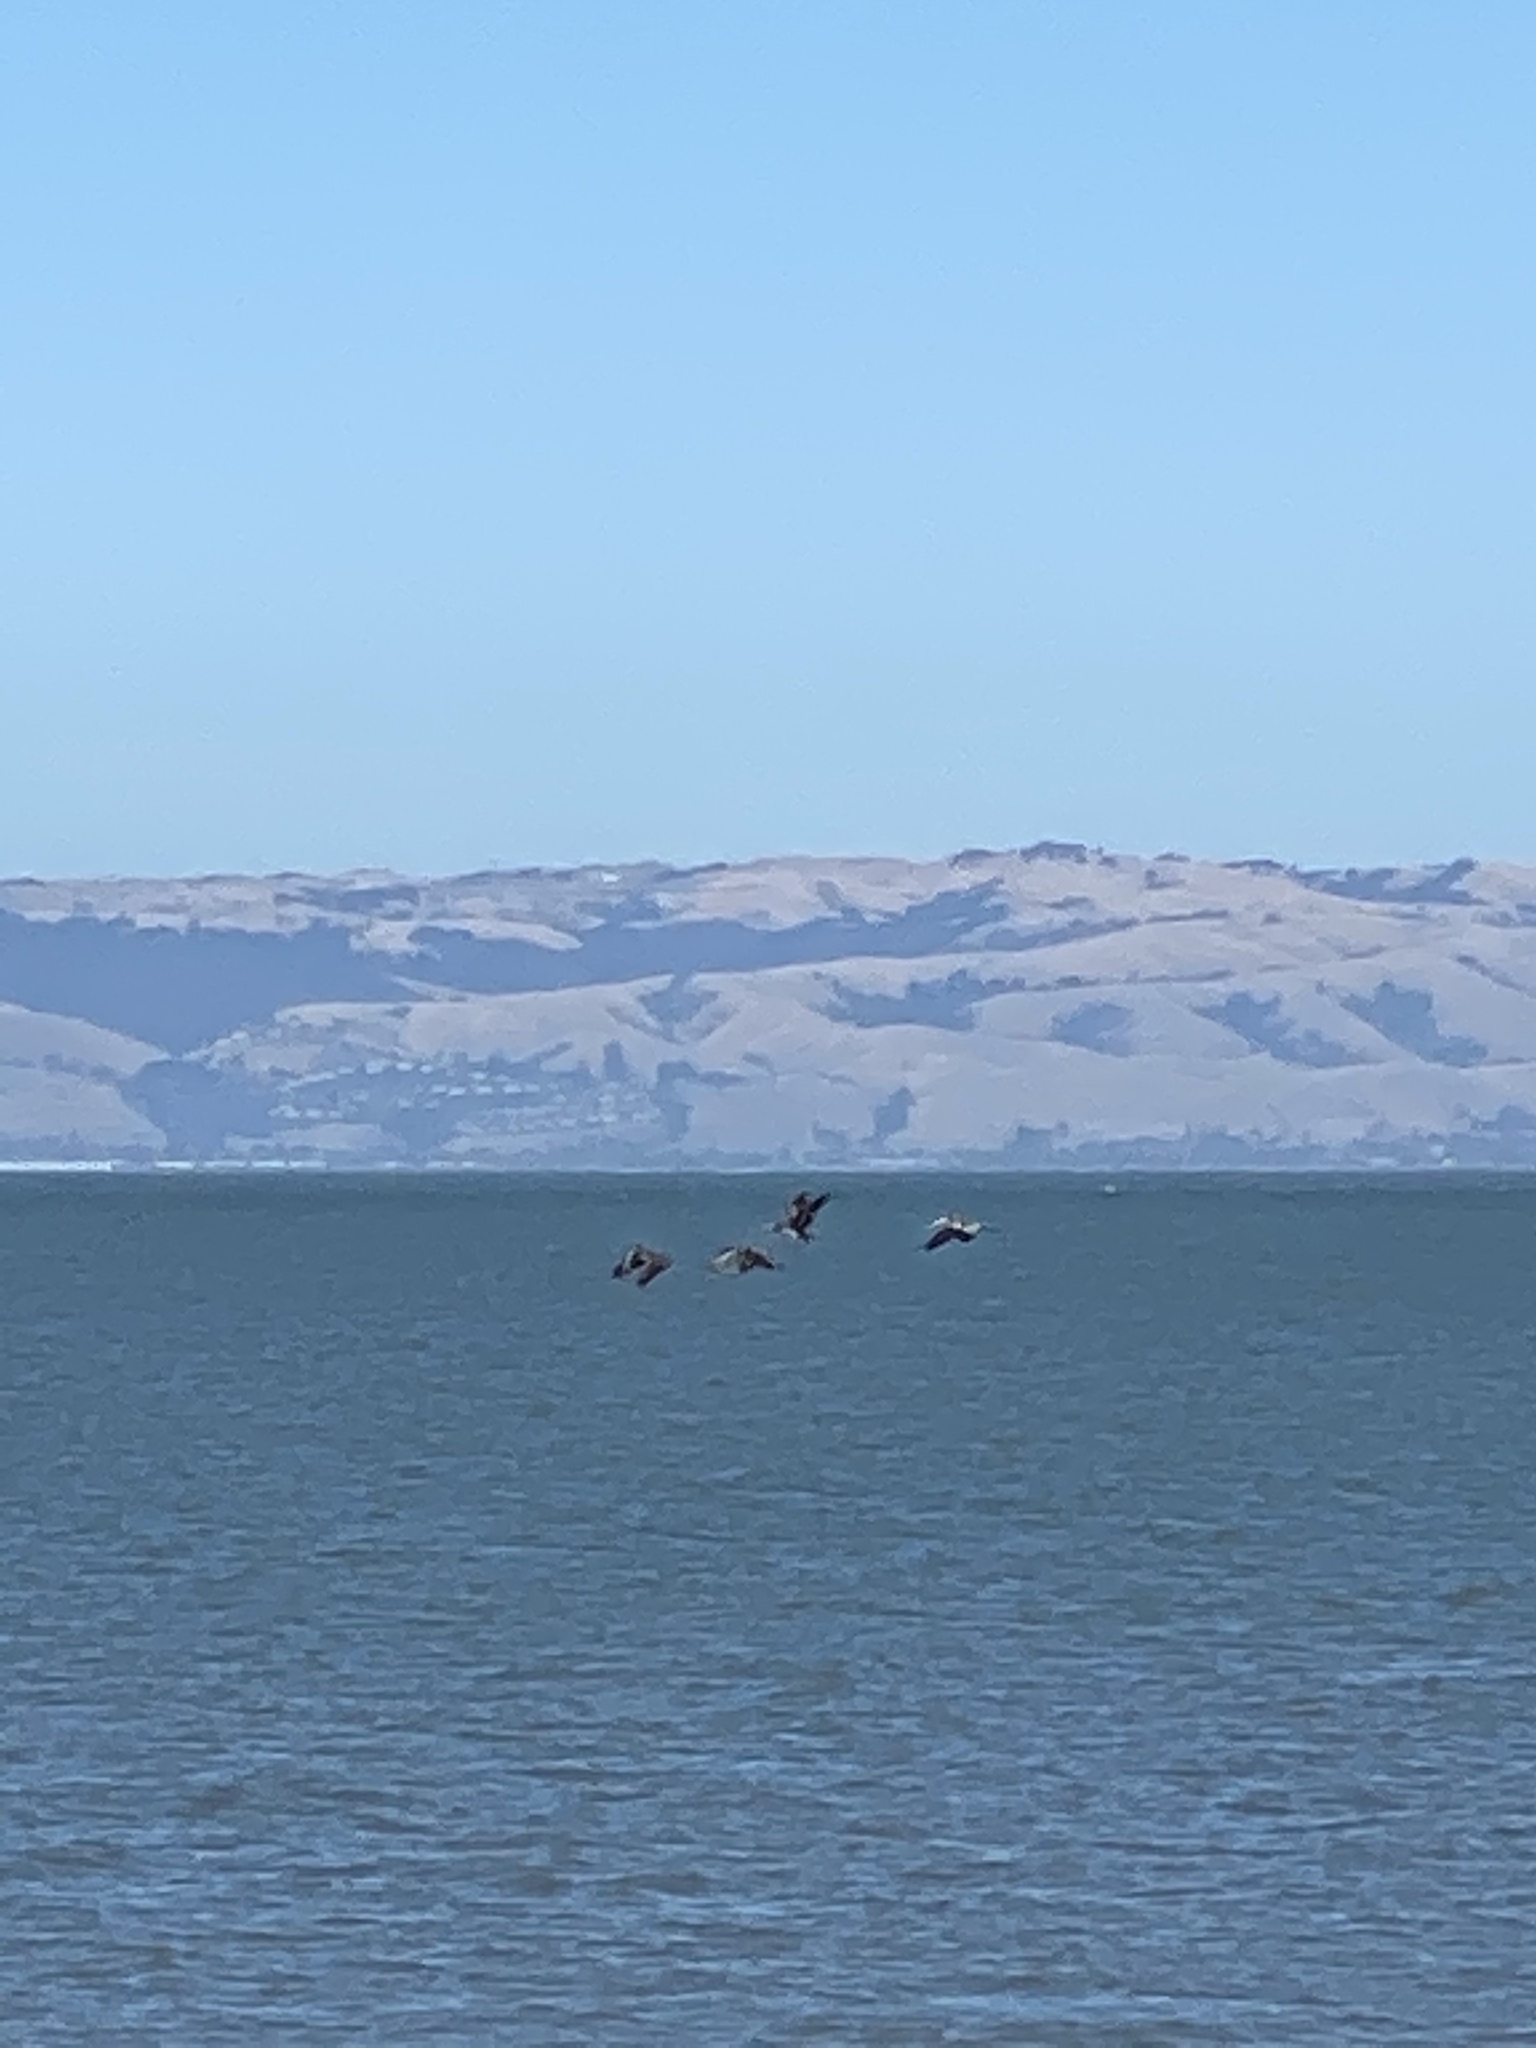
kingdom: Animalia
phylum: Chordata
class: Aves
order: Pelecaniformes
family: Pelecanidae
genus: Pelecanus
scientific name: Pelecanus occidentalis
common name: Brown pelican
